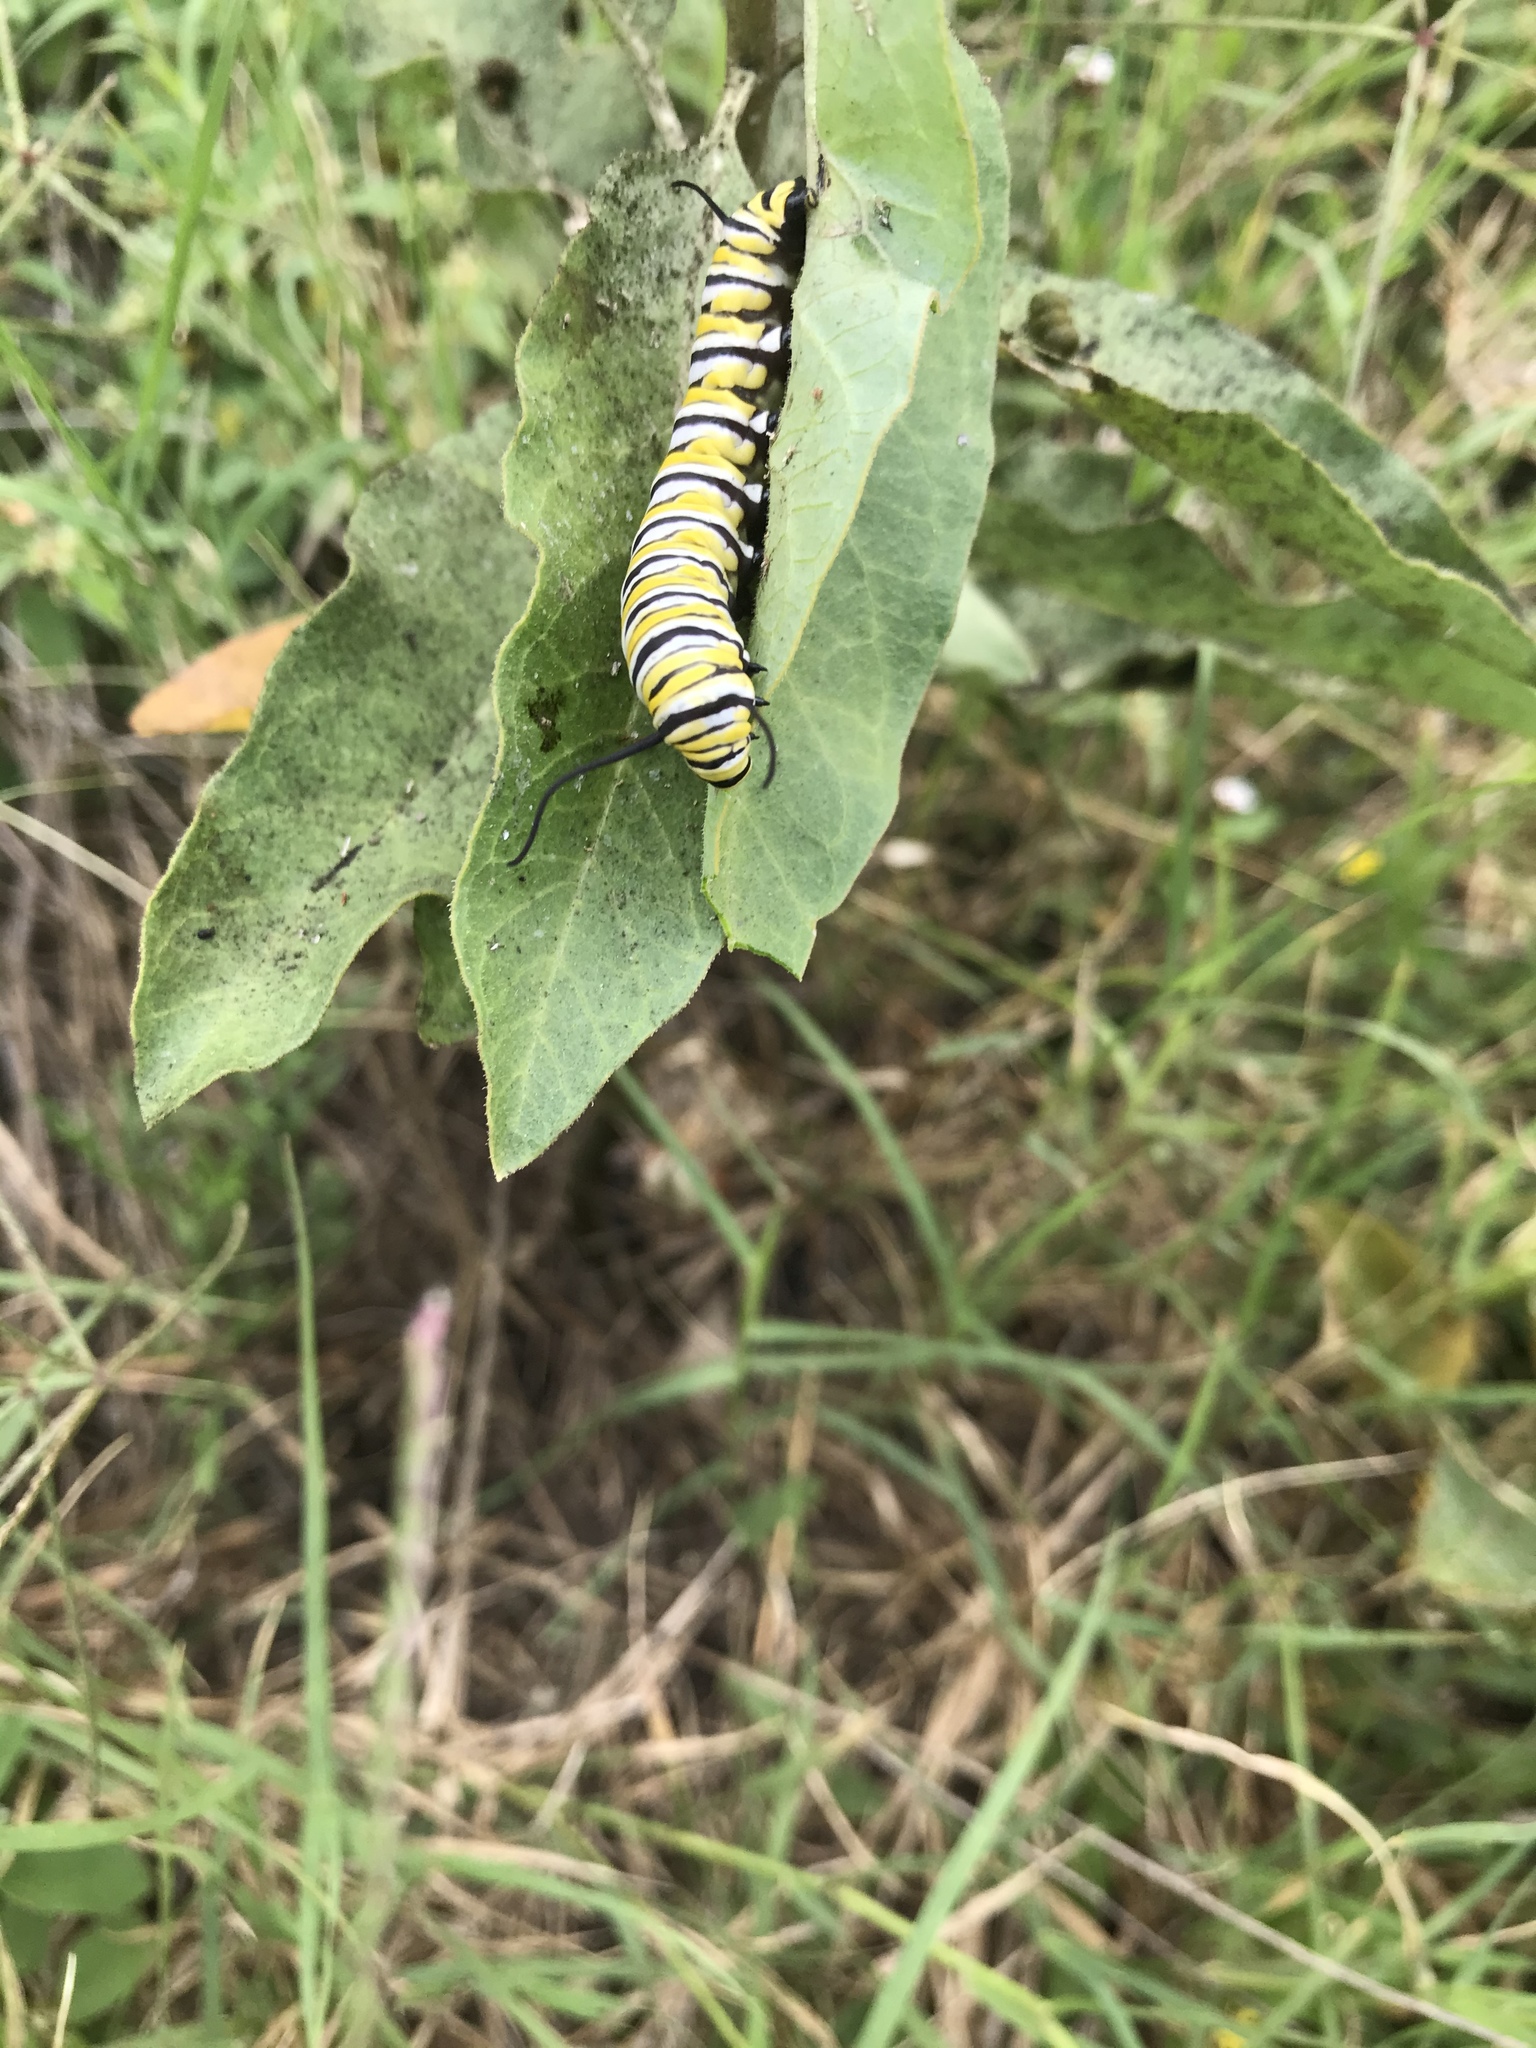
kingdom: Plantae
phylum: Tracheophyta
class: Magnoliopsida
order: Gentianales
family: Apocynaceae
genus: Asclepias
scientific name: Asclepias oenotheroides
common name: Zizotes milkweed
